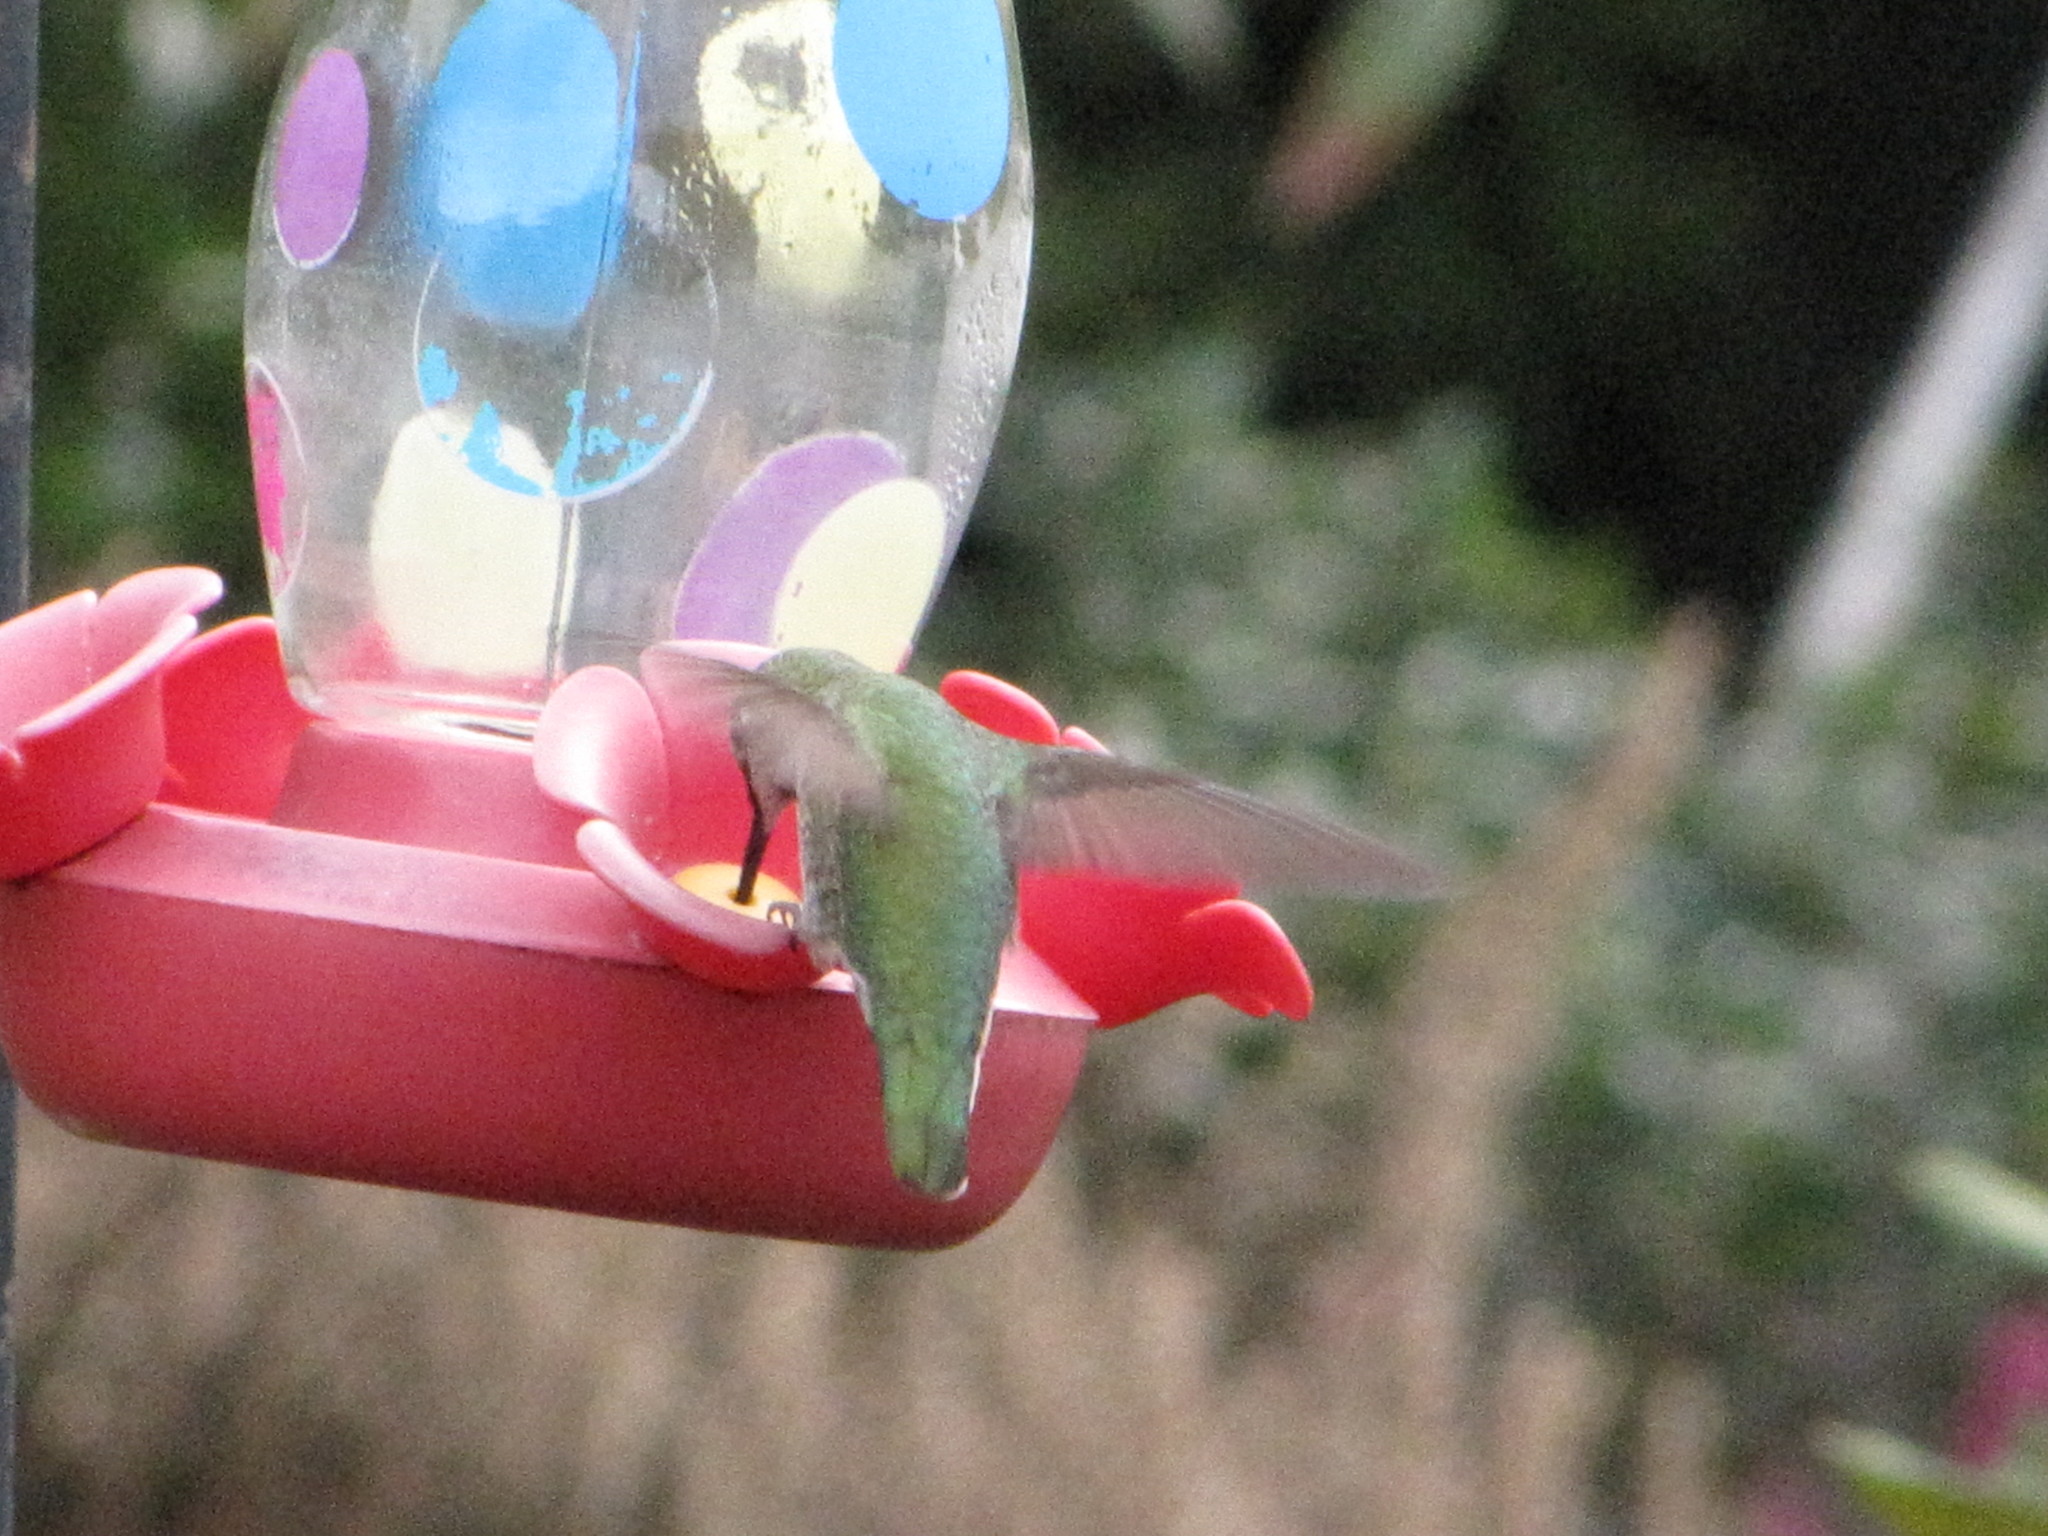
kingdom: Animalia
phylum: Chordata
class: Aves
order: Apodiformes
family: Trochilidae
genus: Calypte
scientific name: Calypte anna
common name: Anna's hummingbird
